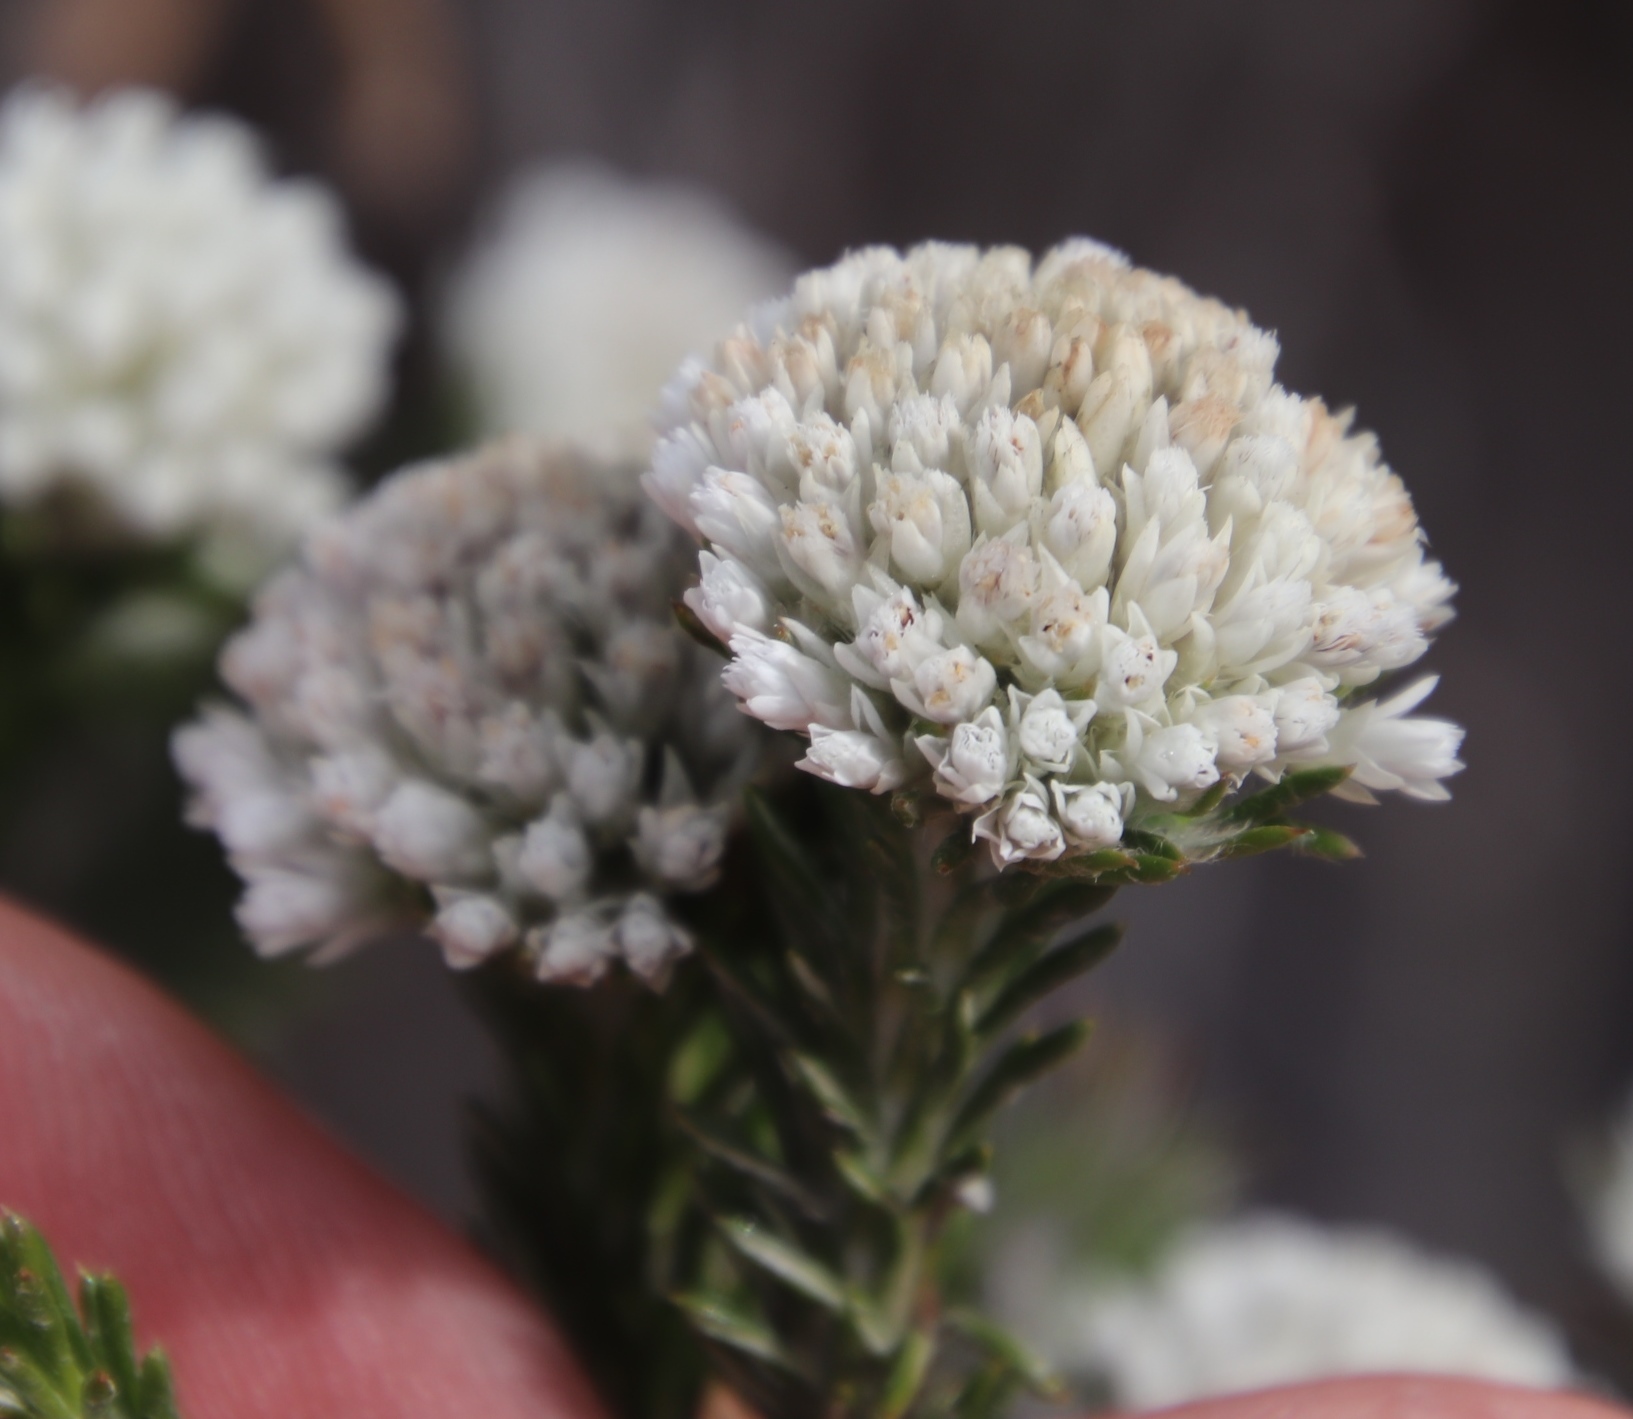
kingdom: Plantae
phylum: Tracheophyta
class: Magnoliopsida
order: Asterales
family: Asteraceae
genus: Metalasia
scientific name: Metalasia compacta
